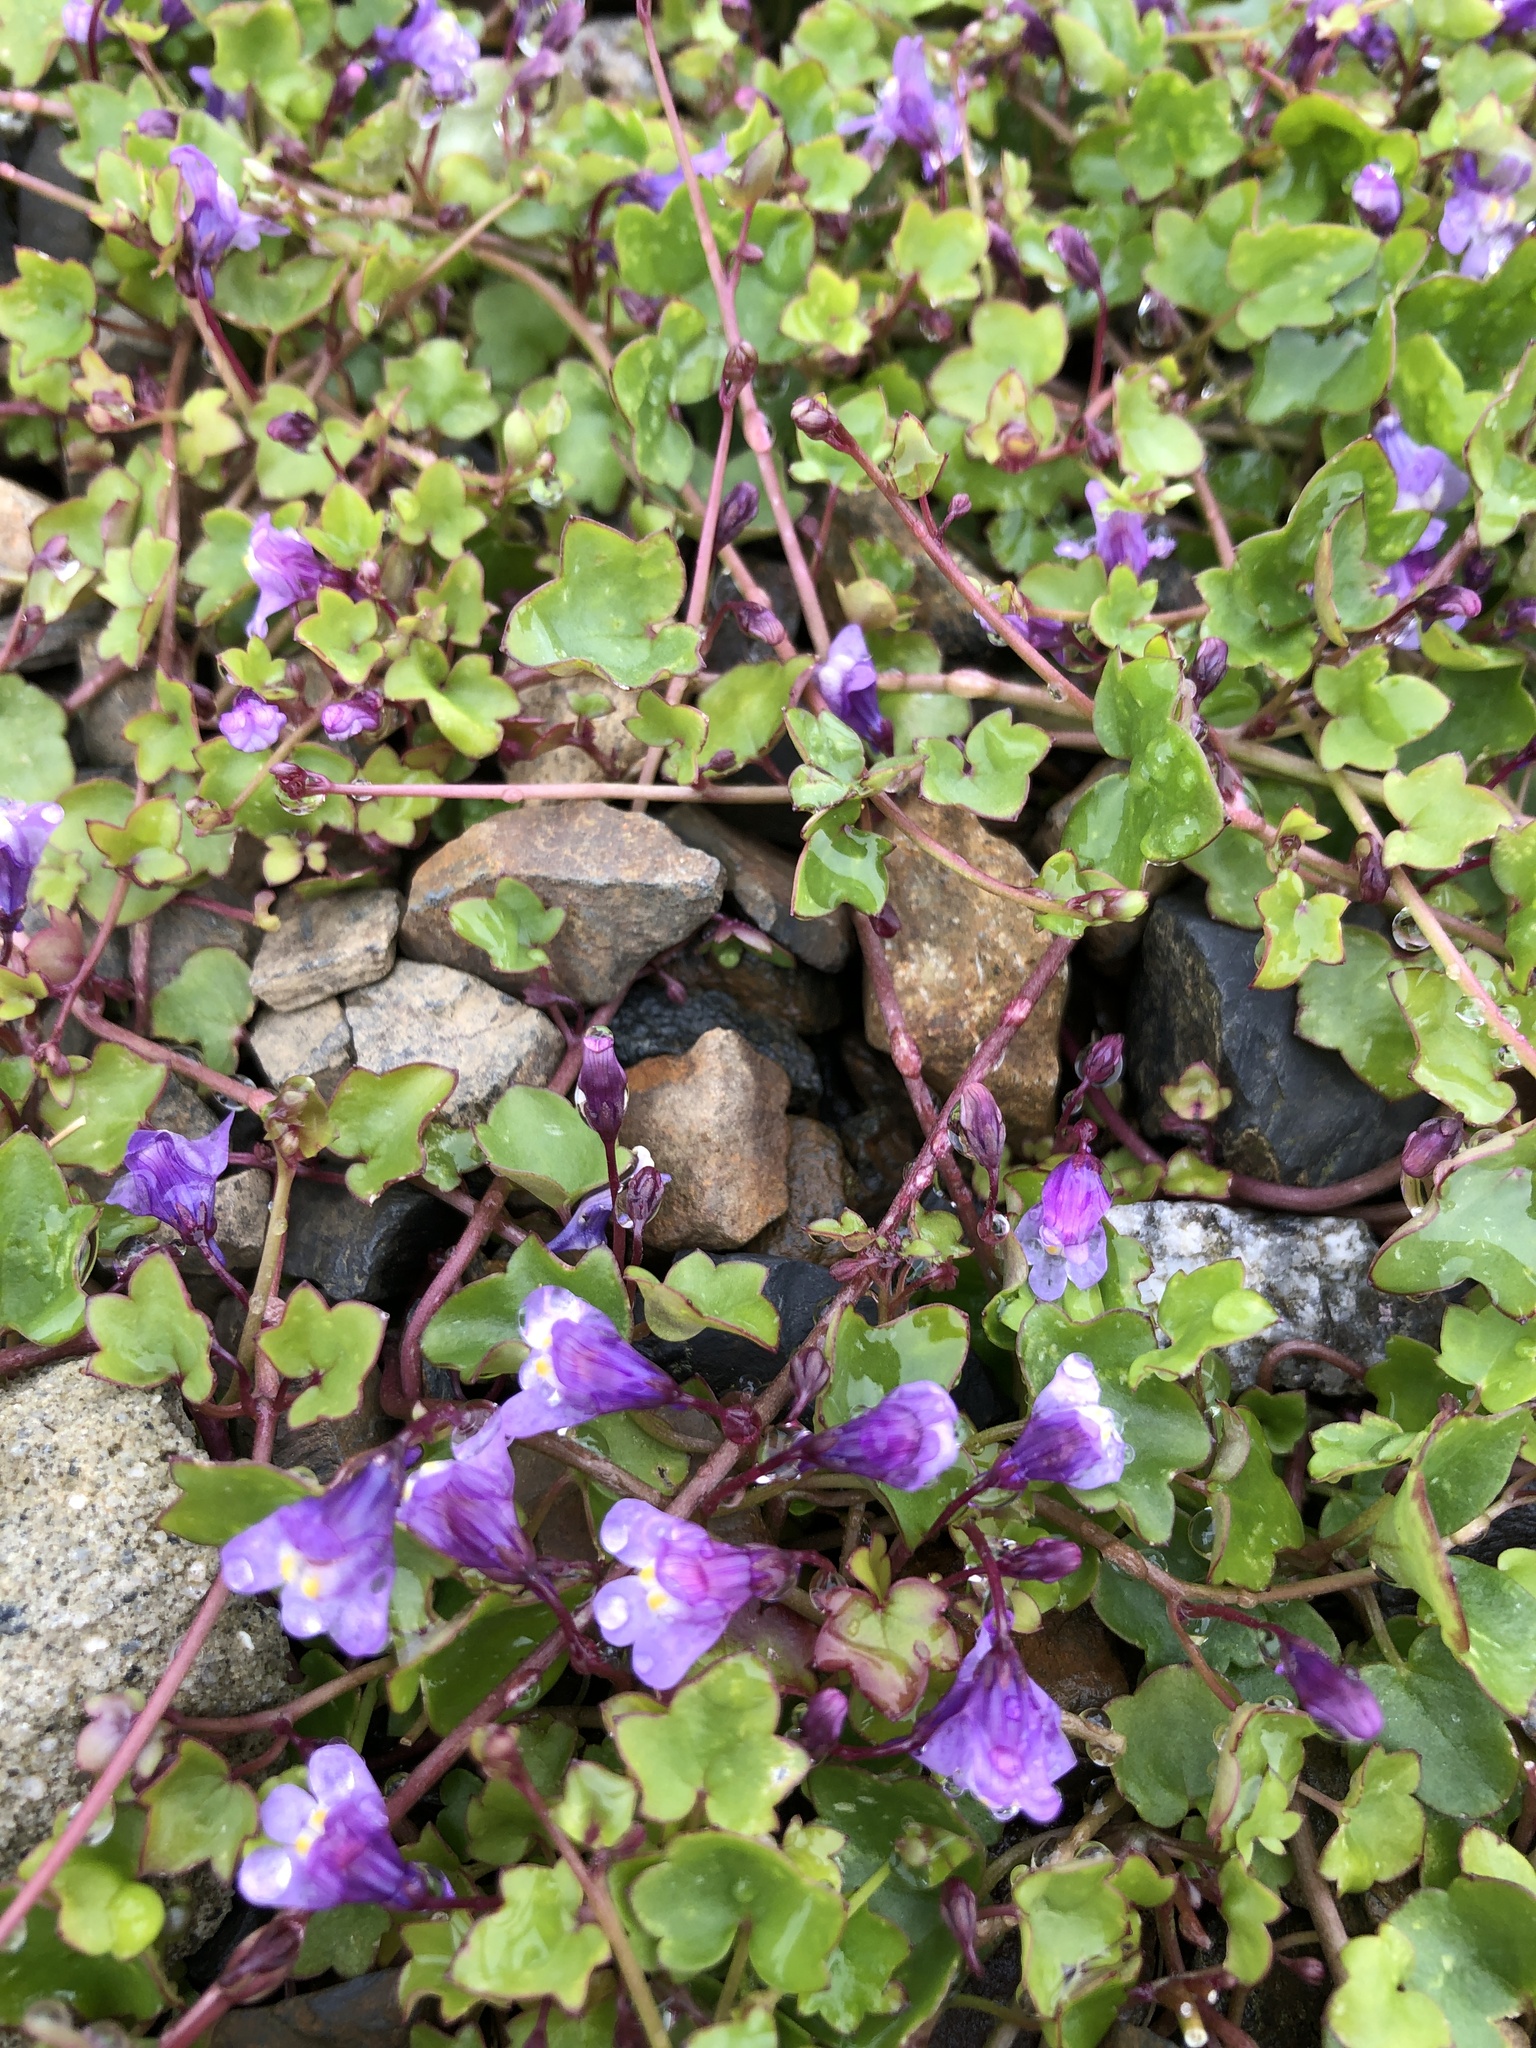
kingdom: Plantae
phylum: Tracheophyta
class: Magnoliopsida
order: Lamiales
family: Plantaginaceae
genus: Cymbalaria
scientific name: Cymbalaria muralis
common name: Ivy-leaved toadflax
